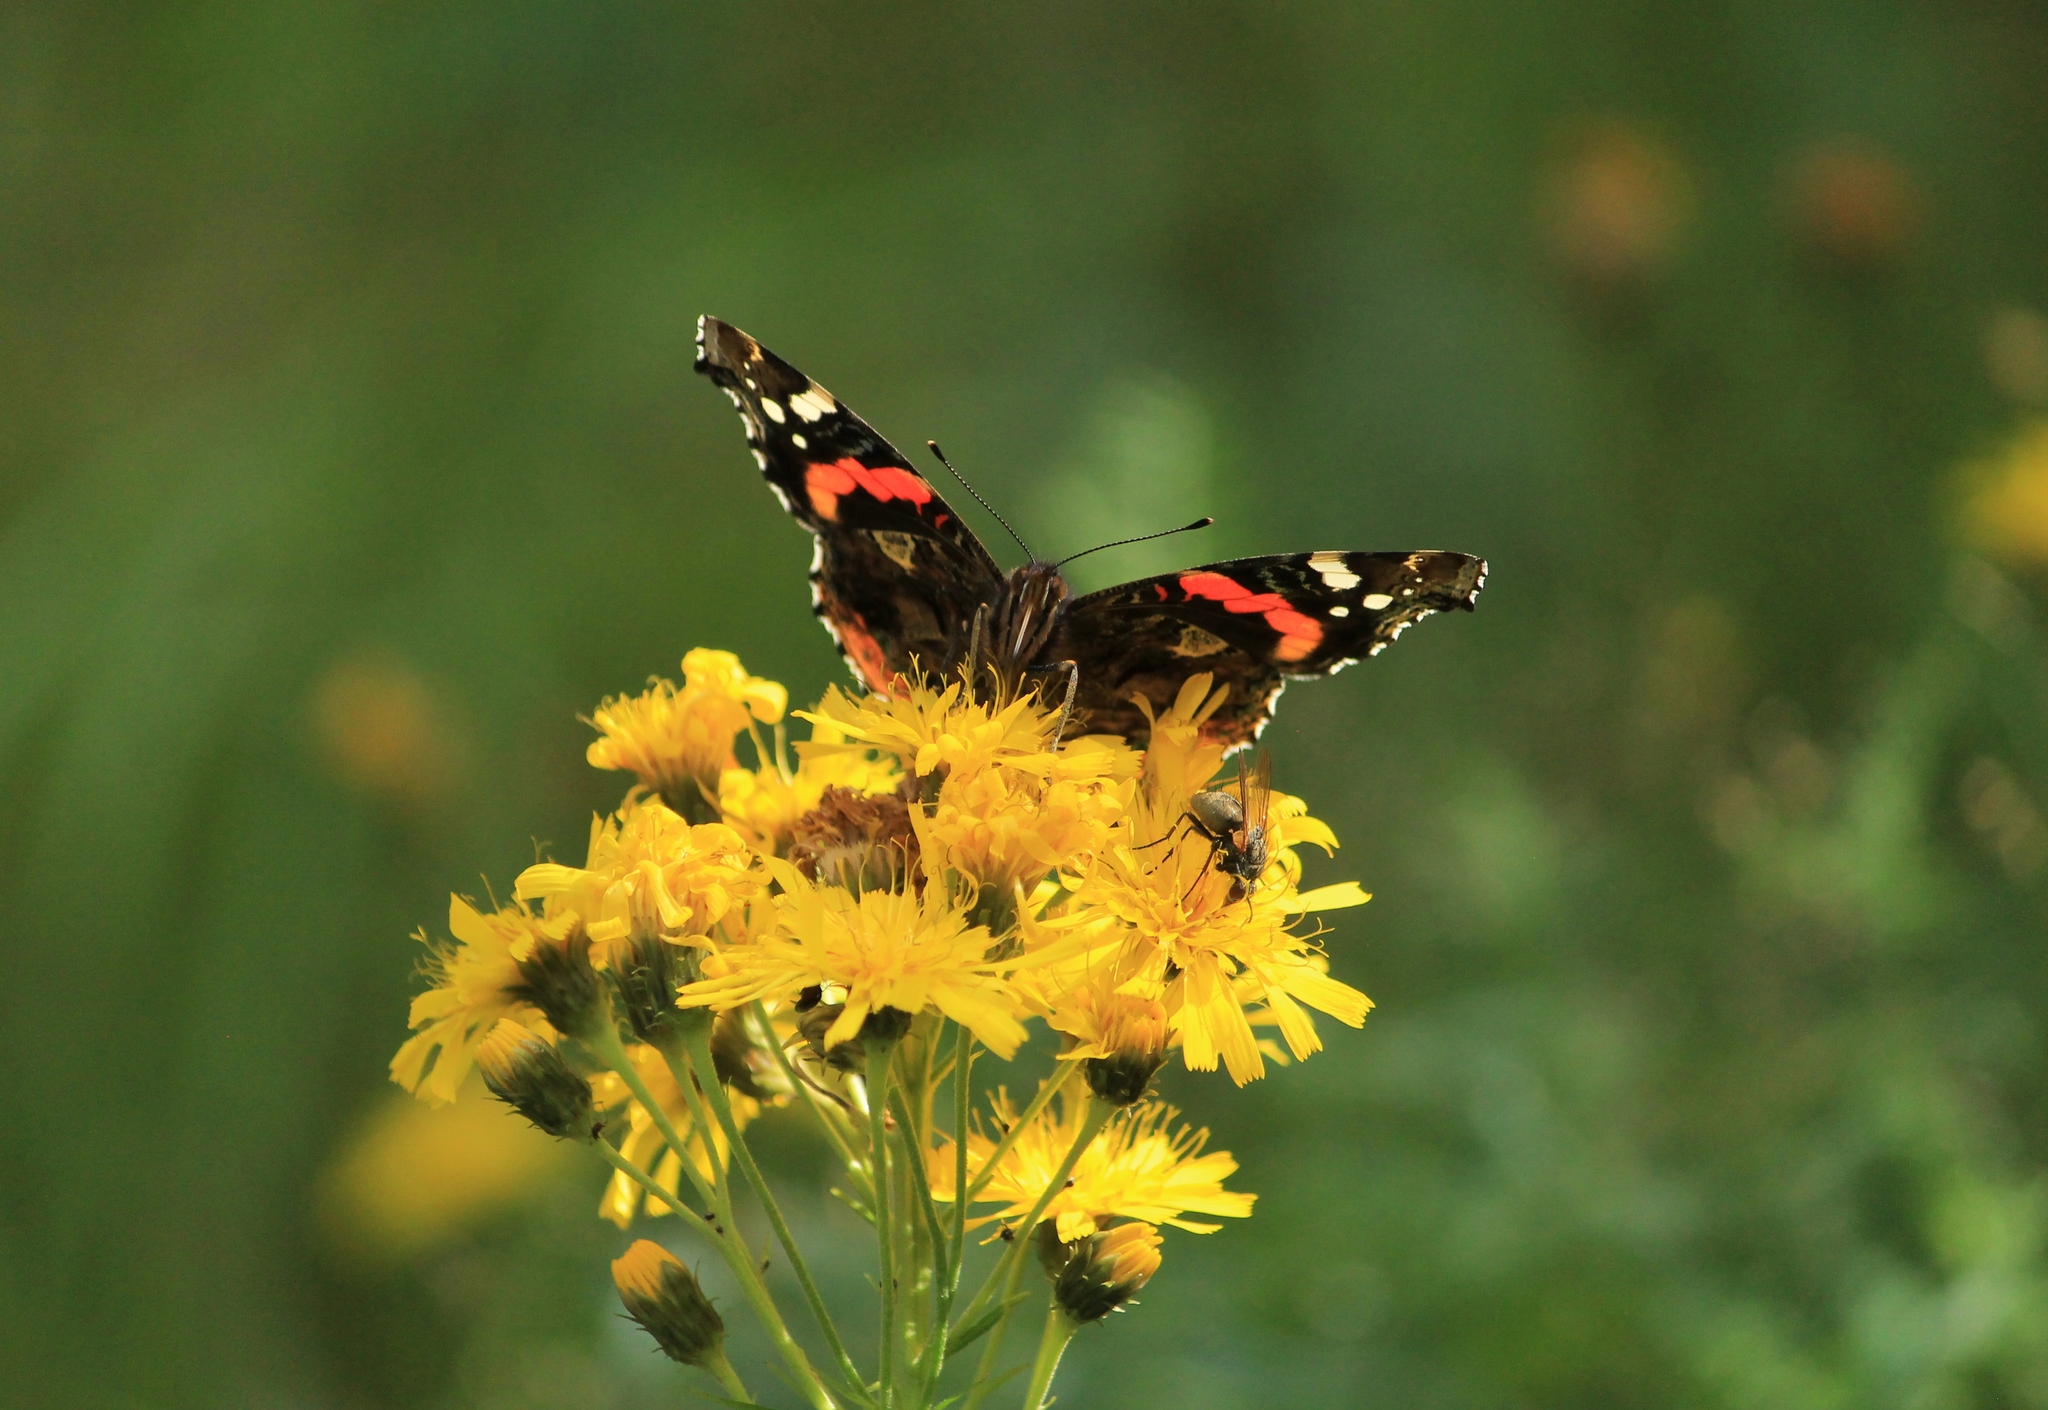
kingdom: Animalia
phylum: Arthropoda
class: Insecta
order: Lepidoptera
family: Nymphalidae
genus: Vanessa
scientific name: Vanessa atalanta
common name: Red admiral
